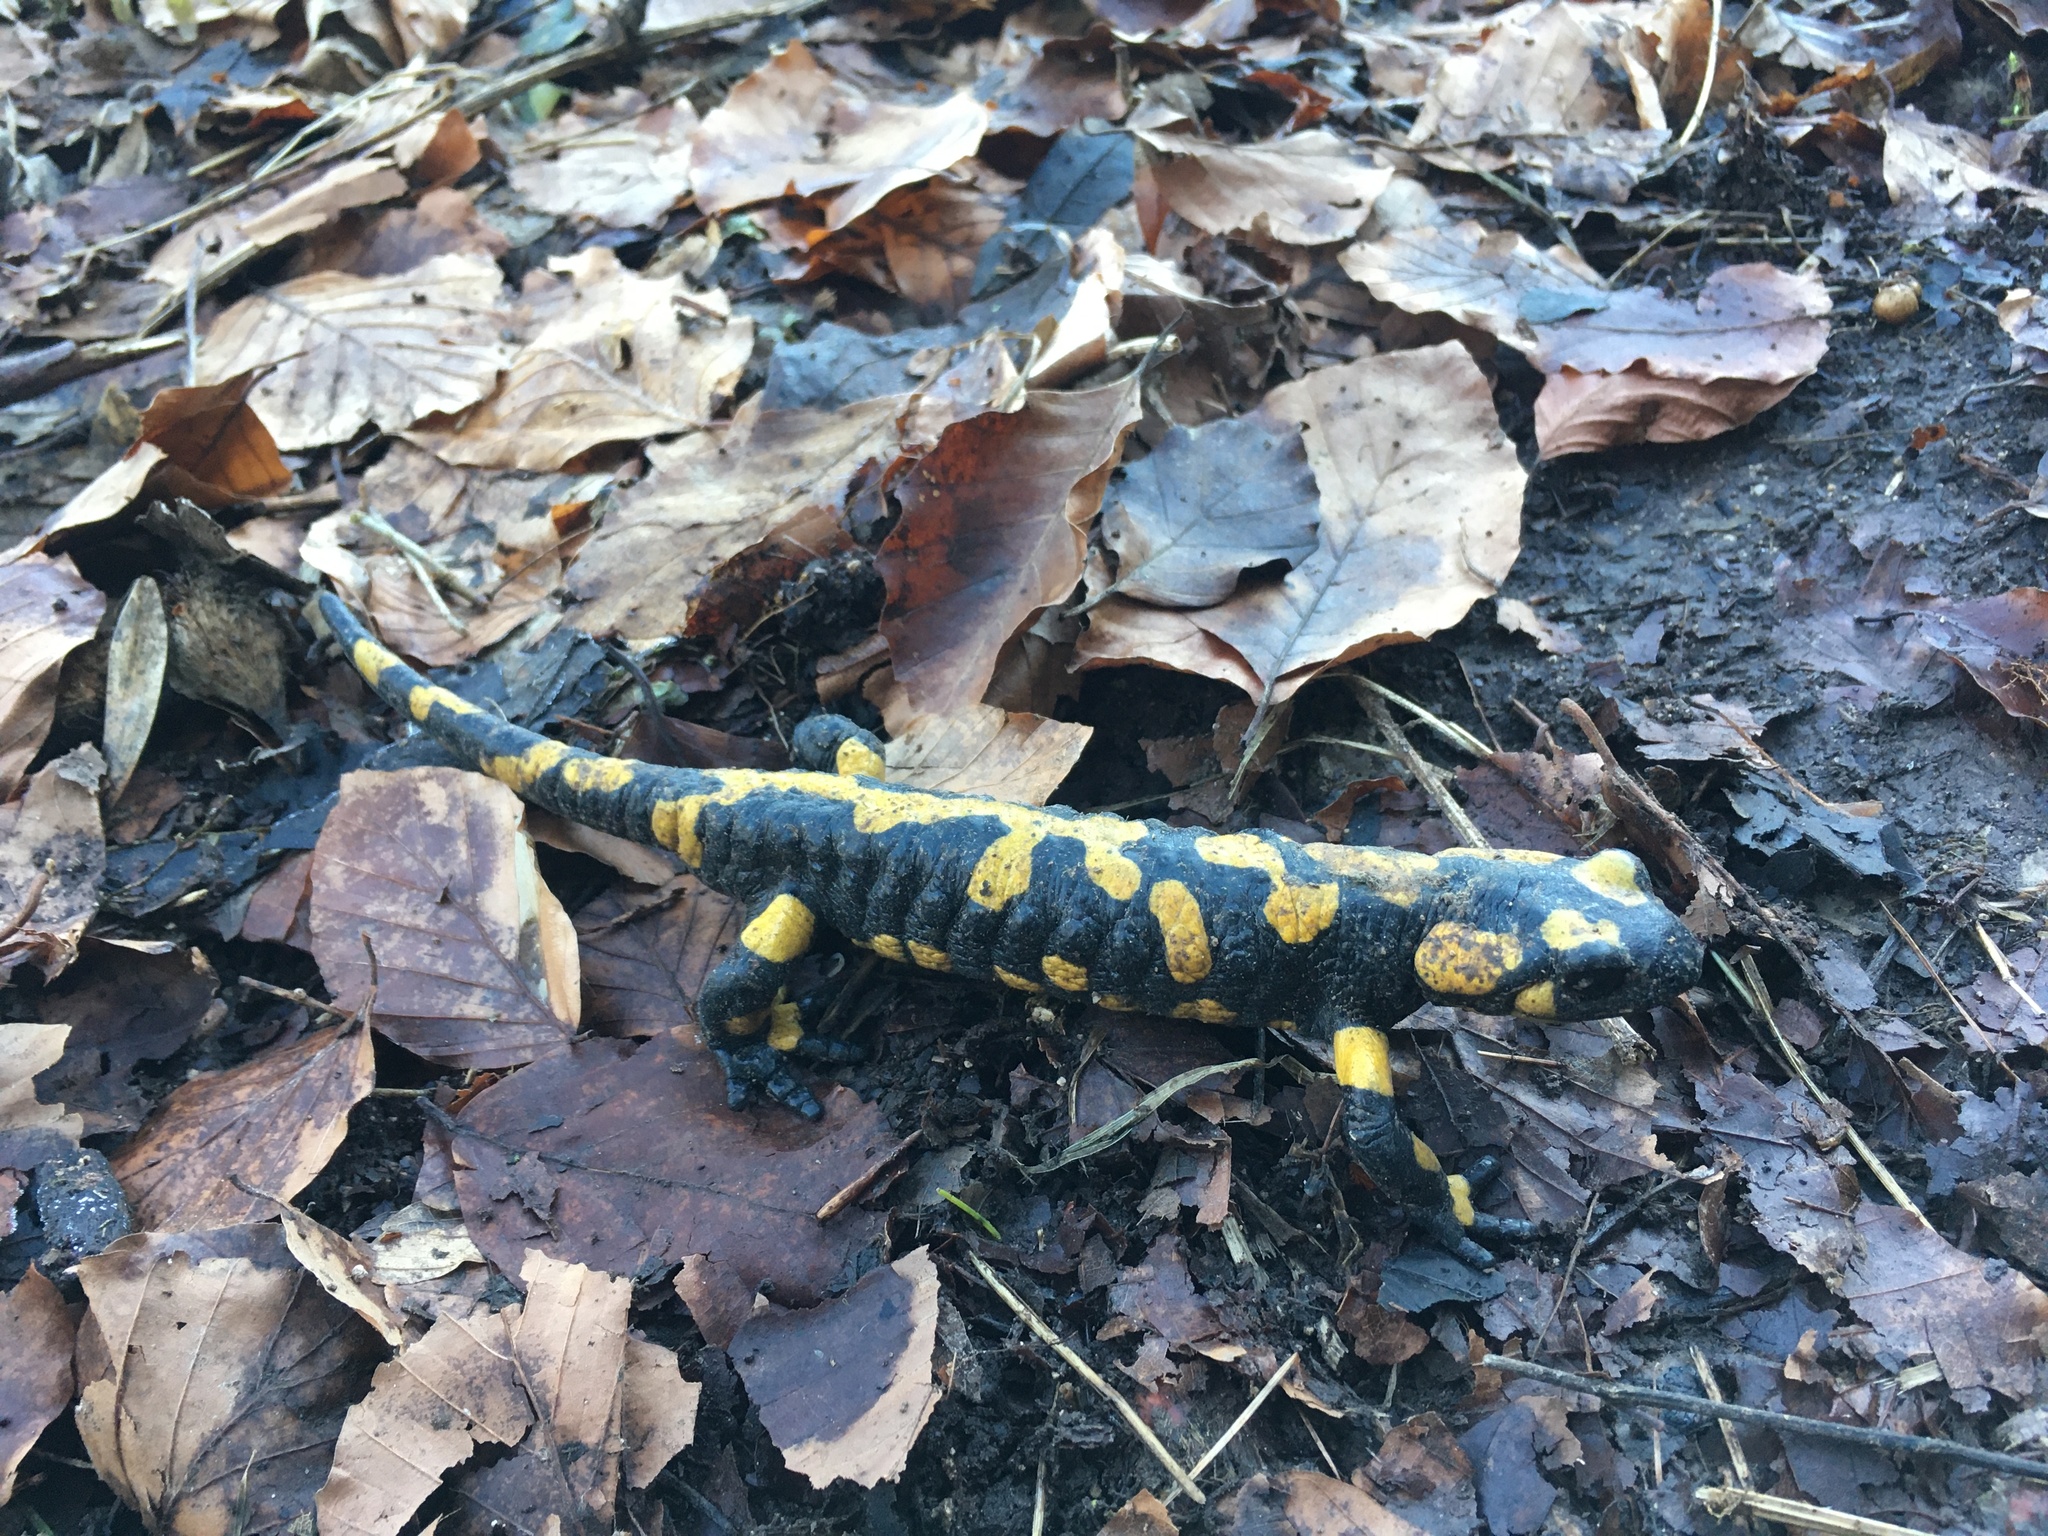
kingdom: Animalia
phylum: Chordata
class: Amphibia
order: Caudata
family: Salamandridae
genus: Salamandra
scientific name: Salamandra salamandra
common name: Fire salamander
